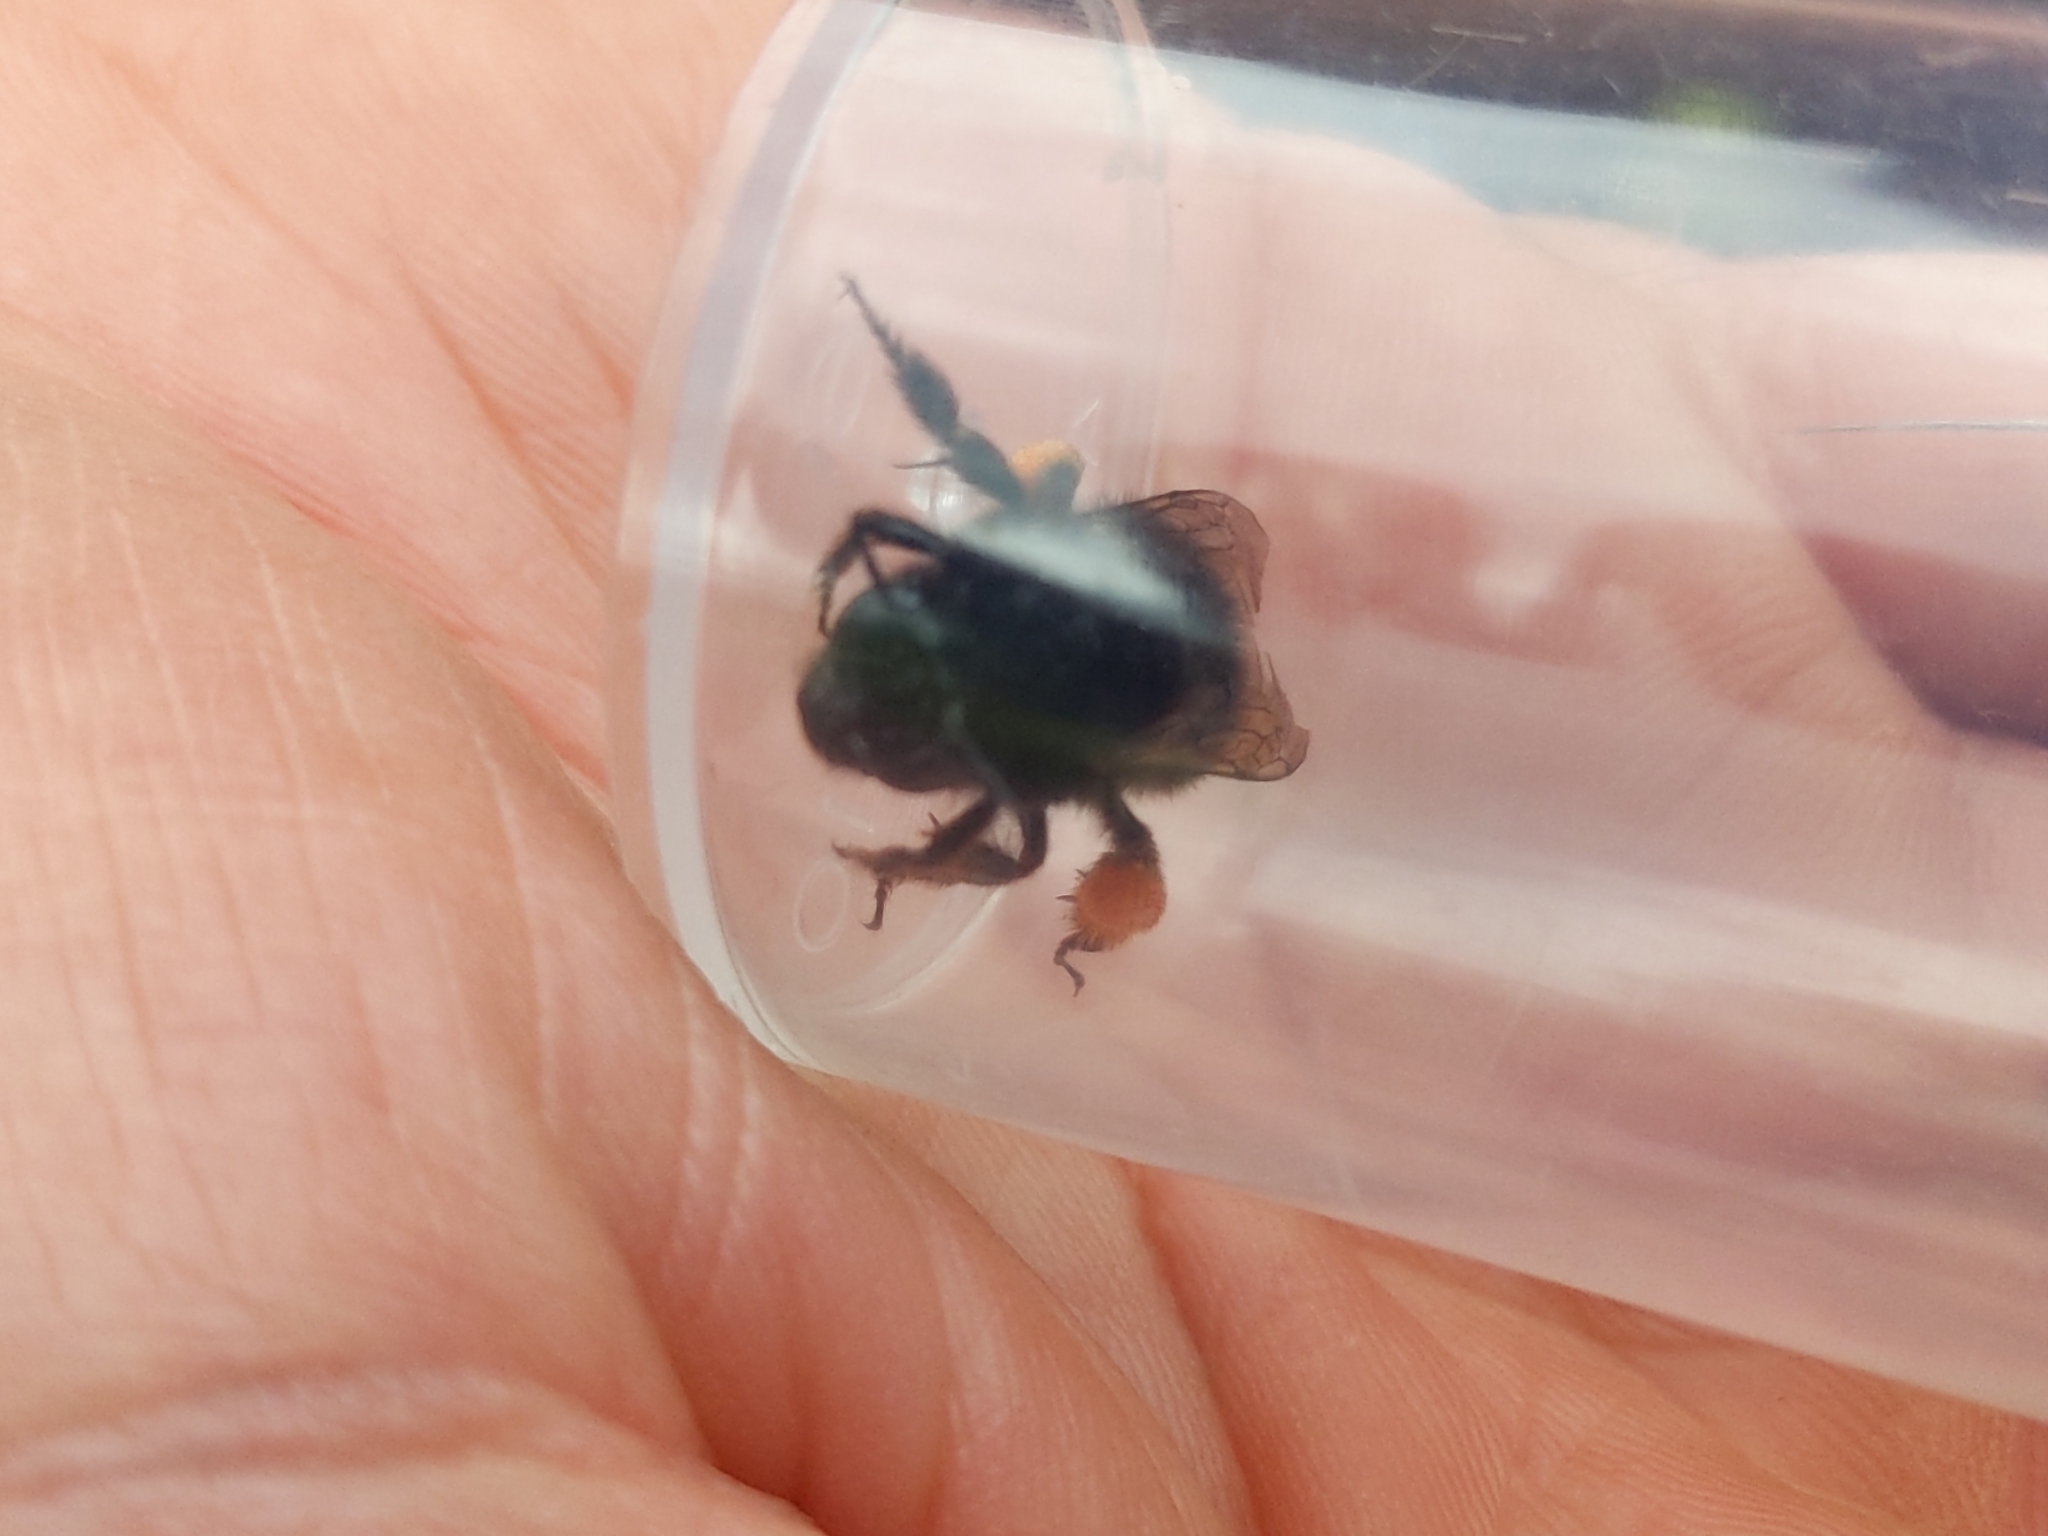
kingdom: Animalia
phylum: Arthropoda
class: Insecta
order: Hymenoptera
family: Apidae
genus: Anthophora
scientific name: Anthophora plumipes
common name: Hairy-footed flower bee
